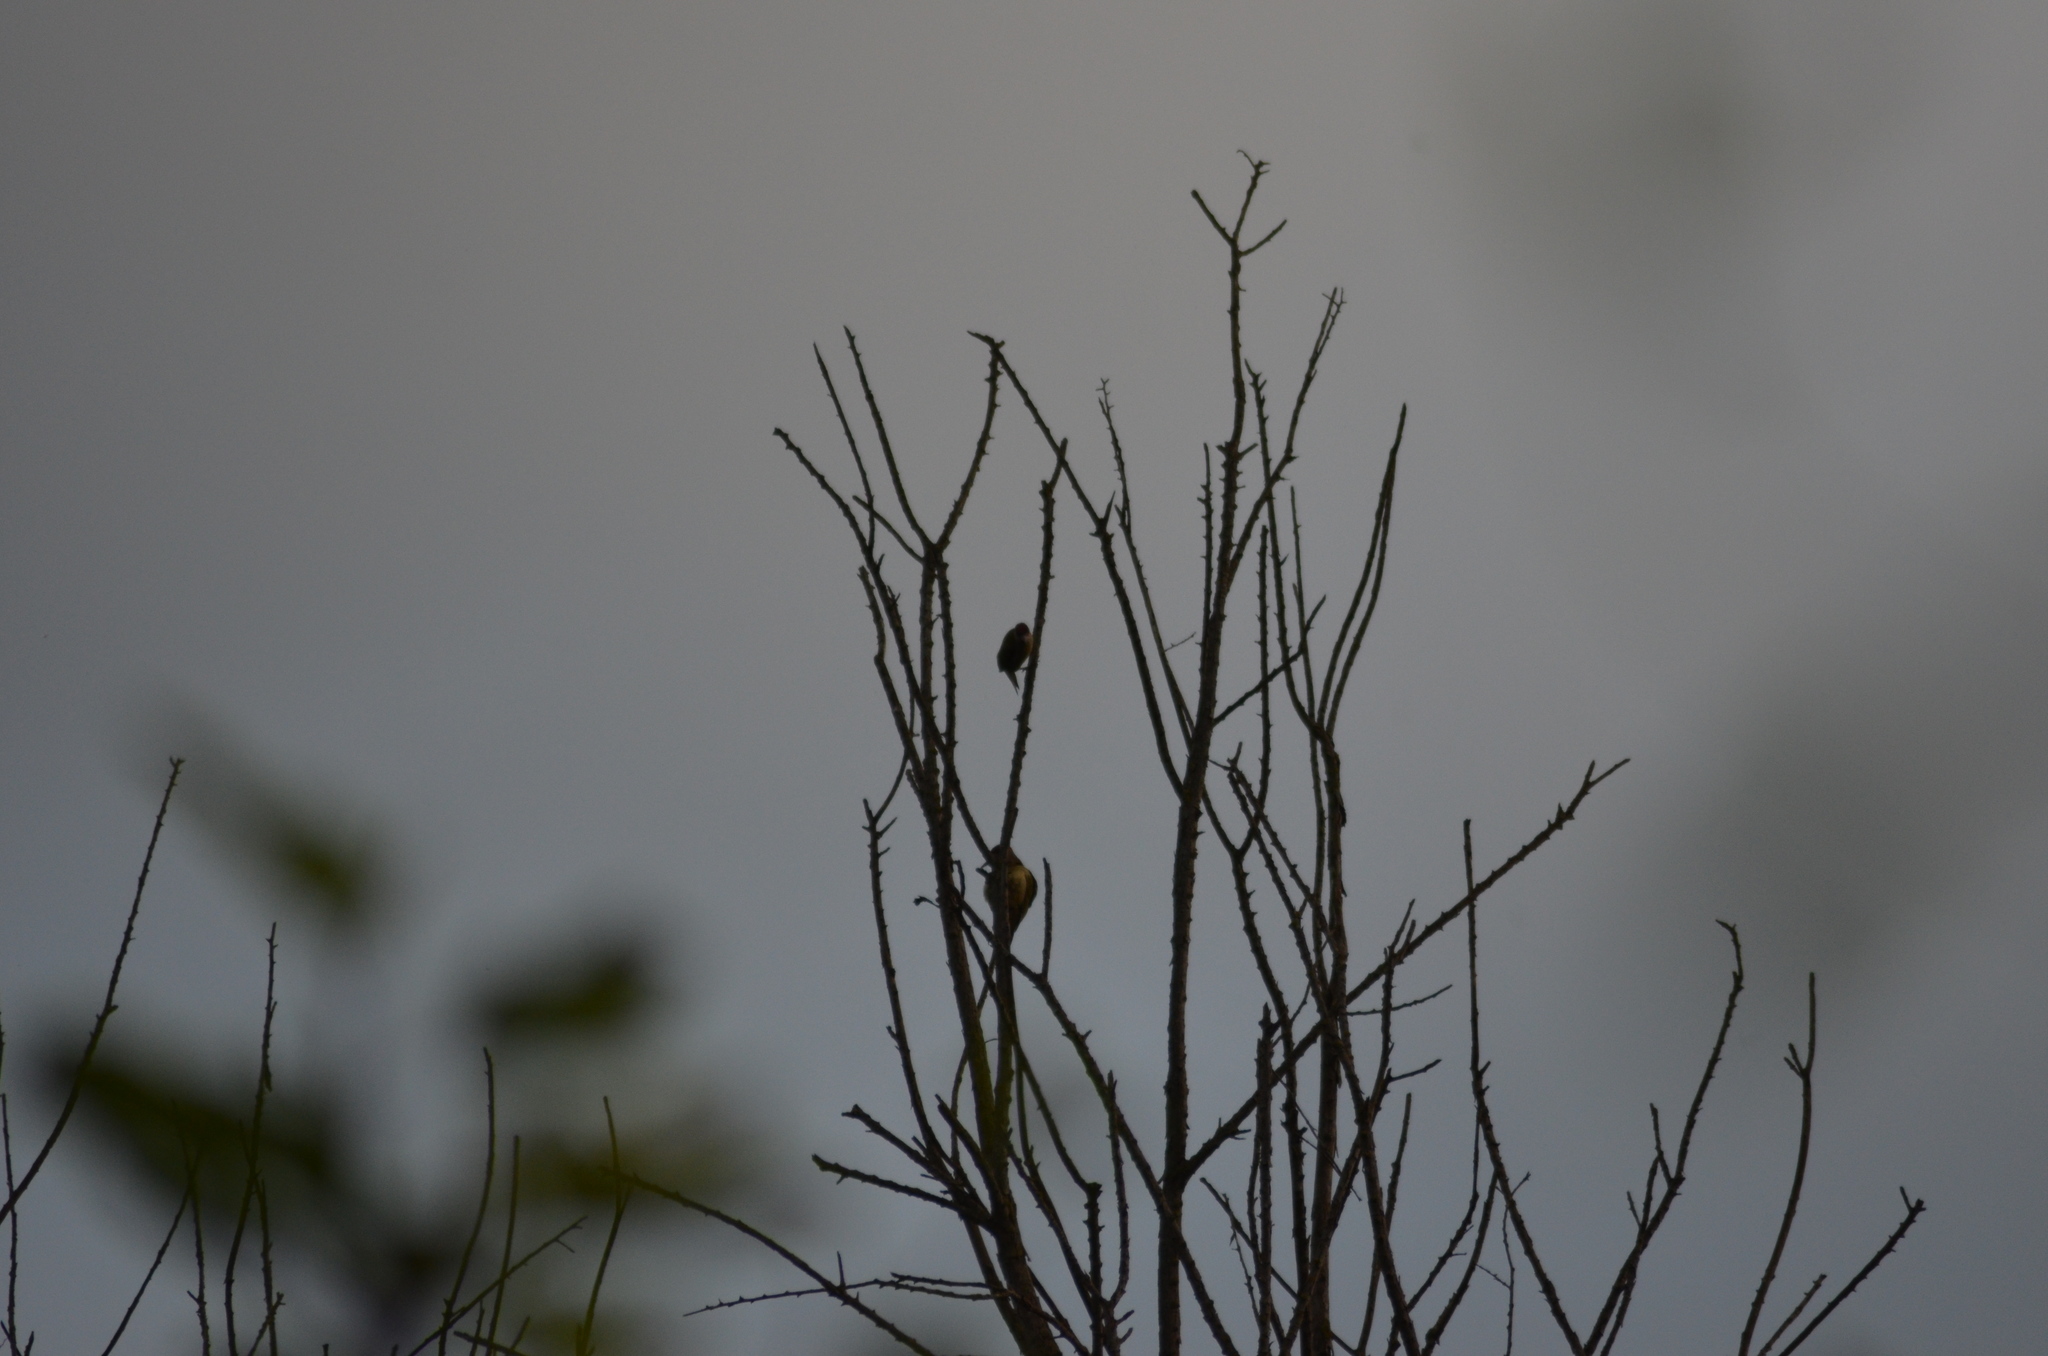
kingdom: Animalia
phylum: Chordata
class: Aves
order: Piciformes
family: Picidae
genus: Picus
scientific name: Picus sharpei
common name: Iberian green woodpecker
